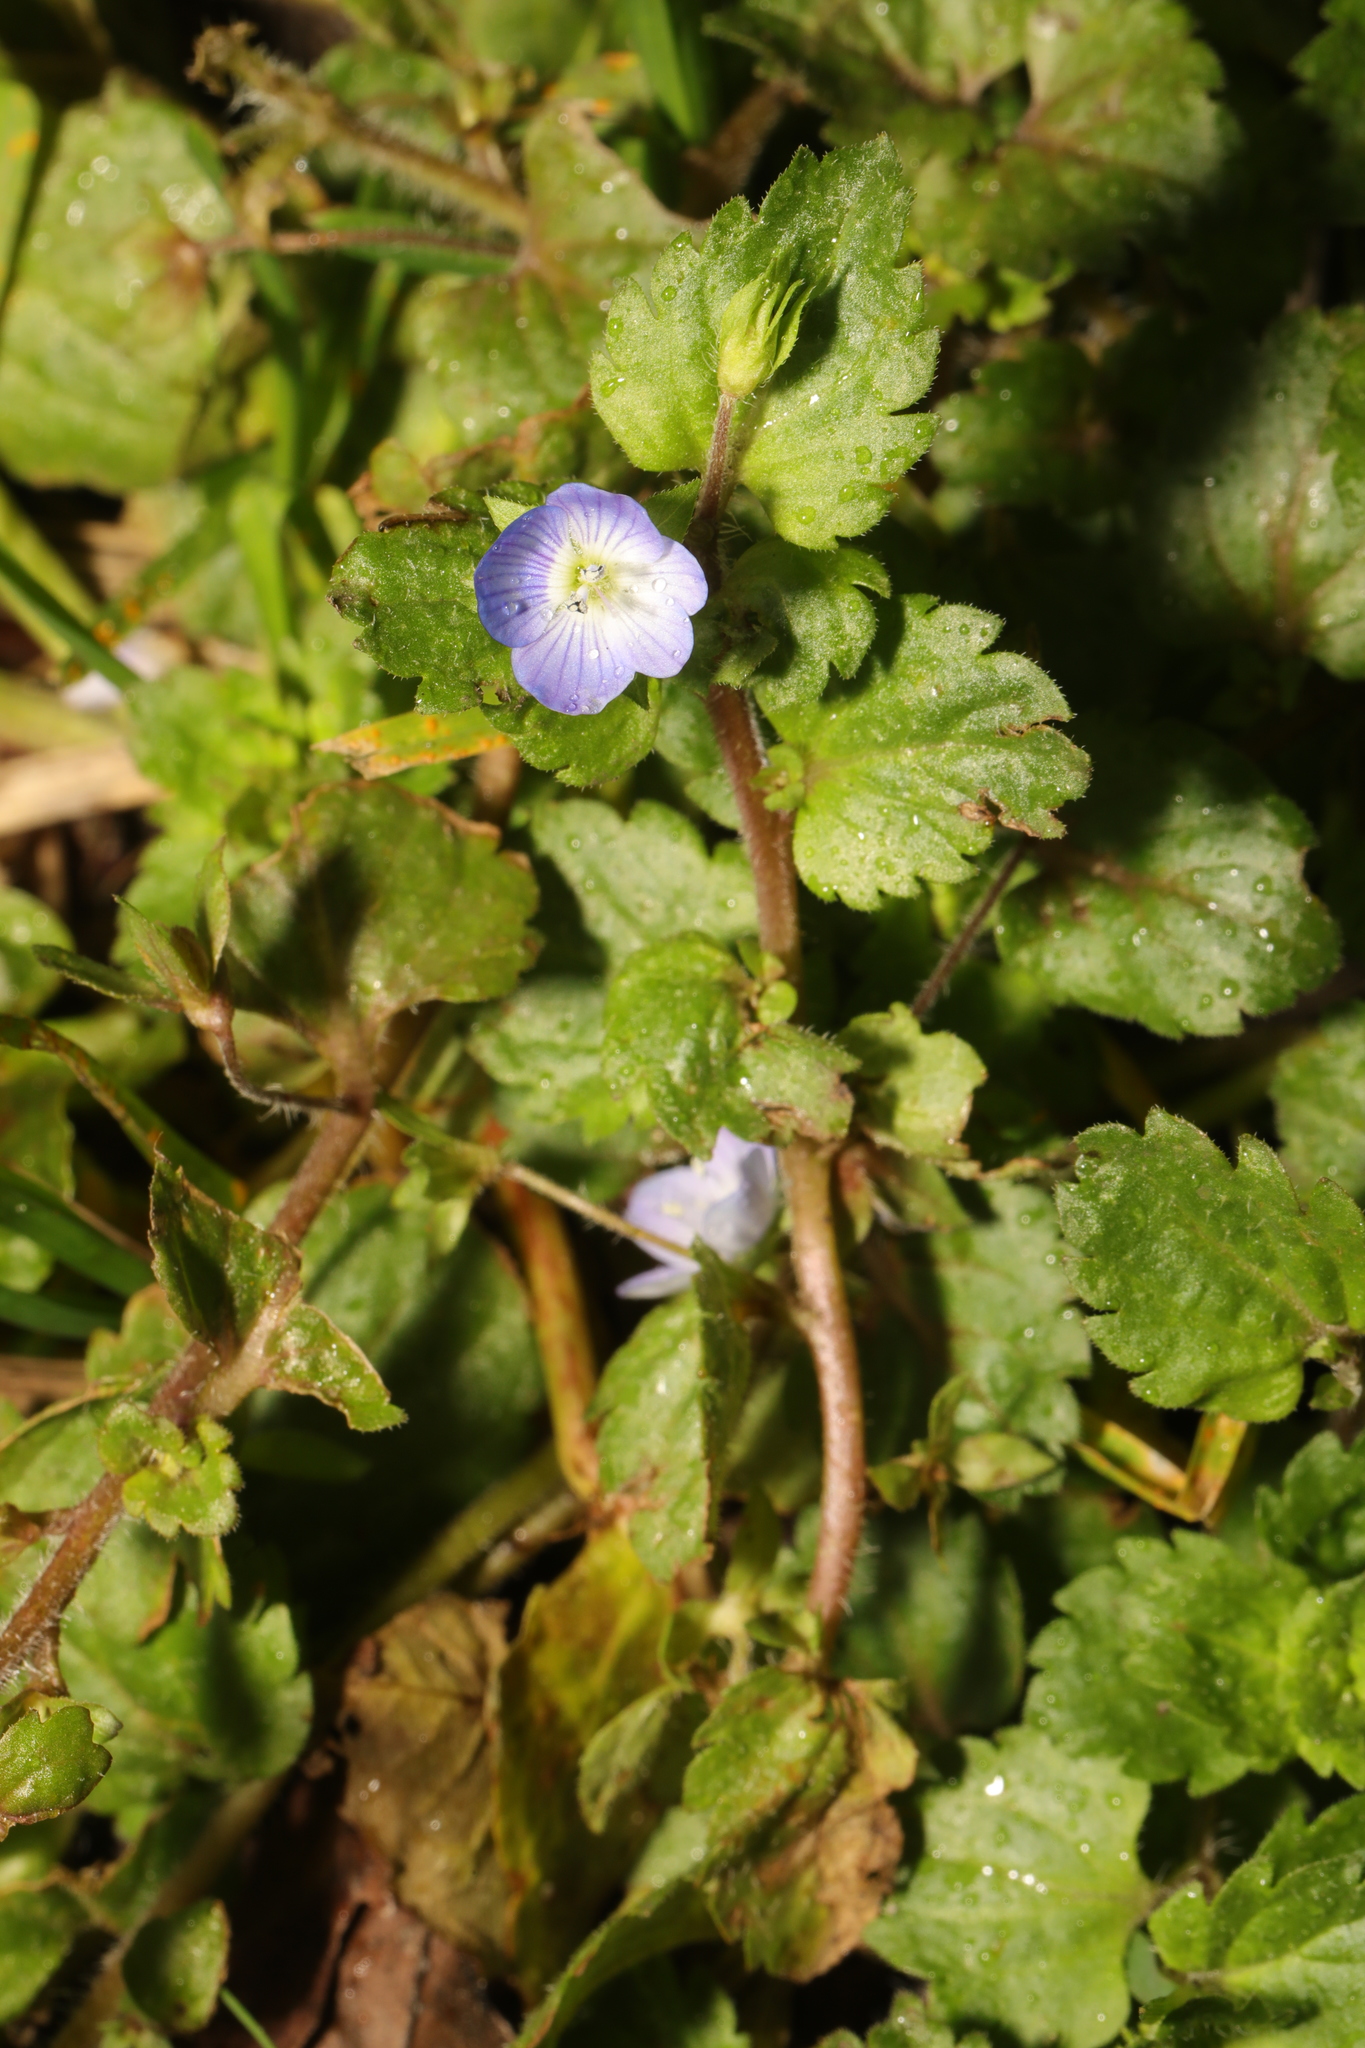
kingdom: Plantae
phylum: Tracheophyta
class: Magnoliopsida
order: Lamiales
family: Plantaginaceae
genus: Veronica
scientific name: Veronica persica
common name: Common field-speedwell
